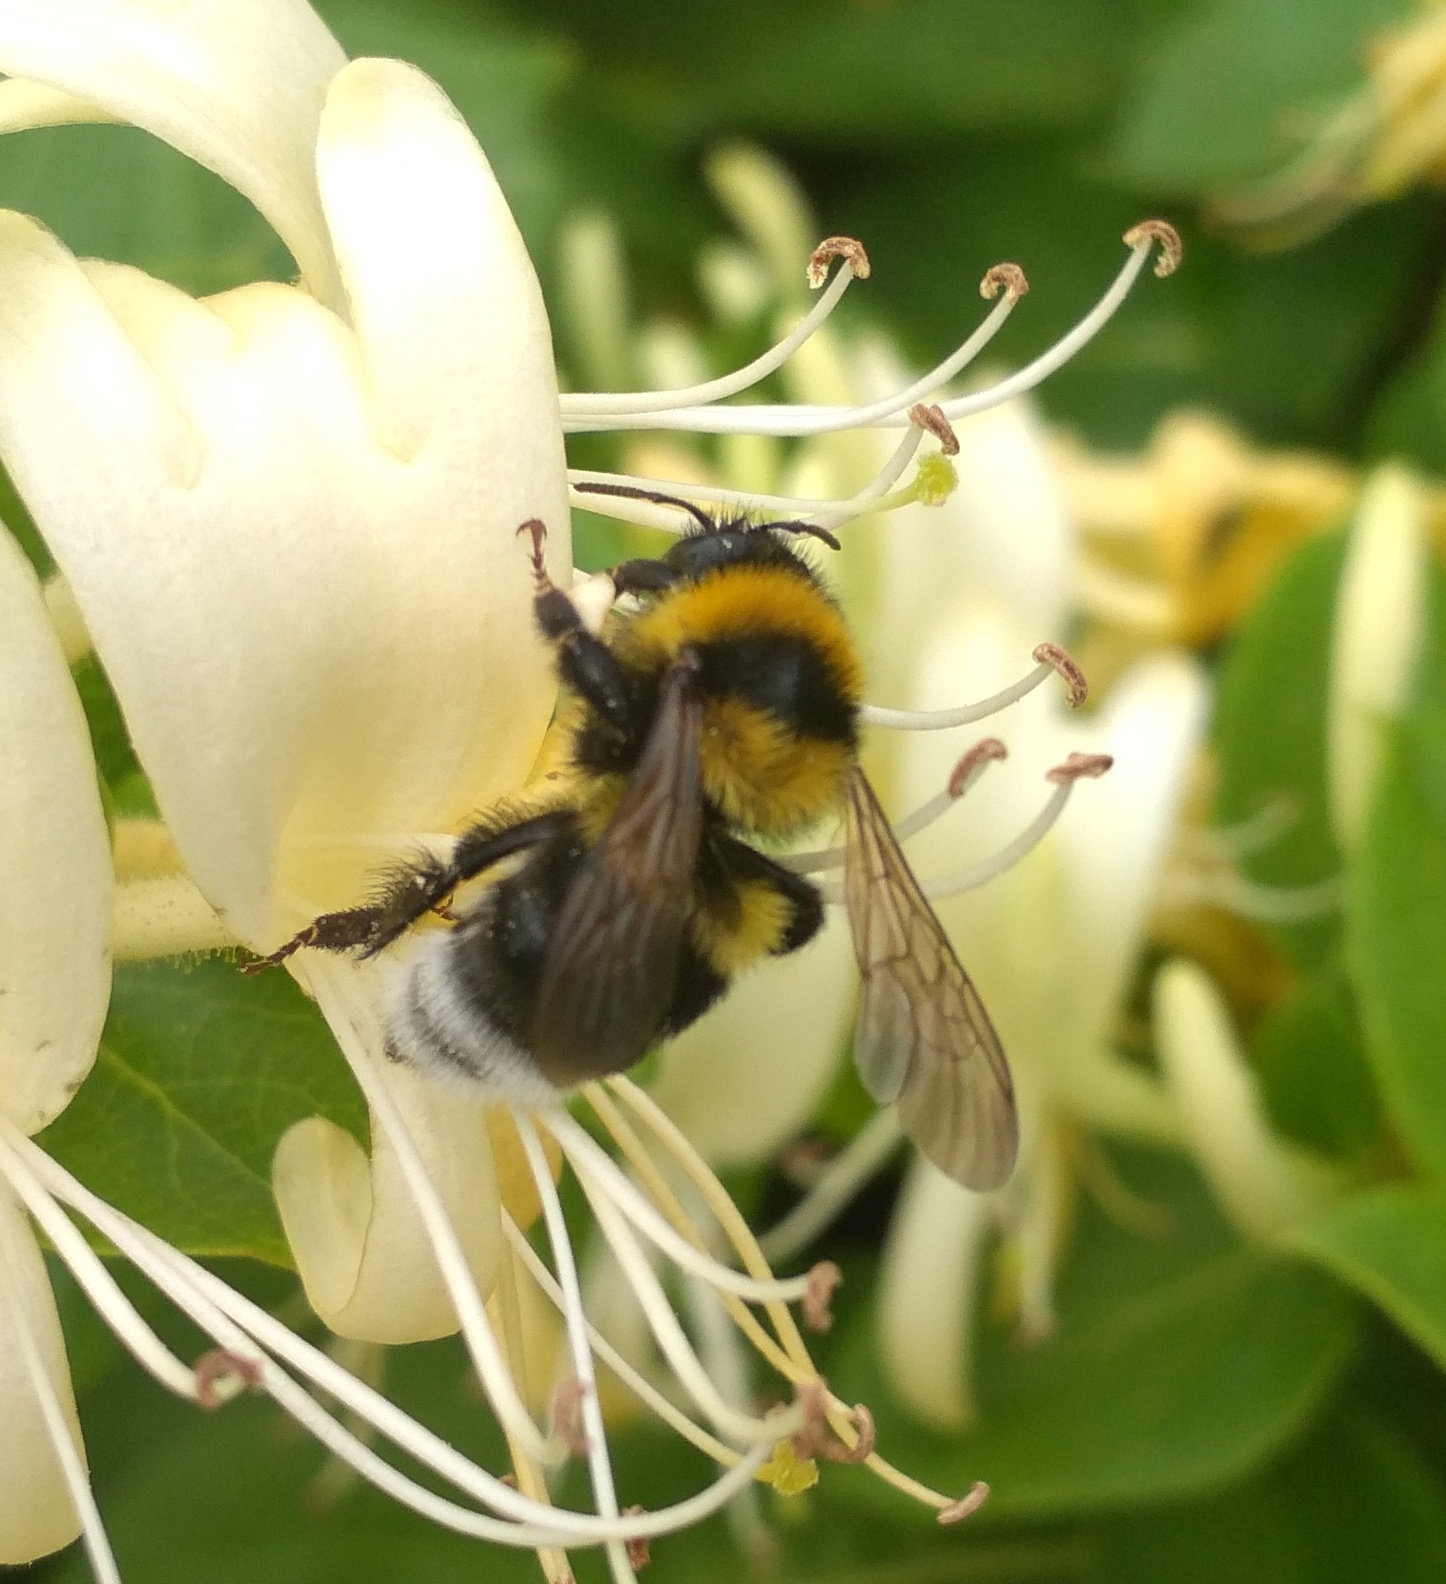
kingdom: Animalia
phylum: Arthropoda
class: Insecta
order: Hymenoptera
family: Apidae
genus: Bombus
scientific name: Bombus ruderatus
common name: Large garden bumblebee
